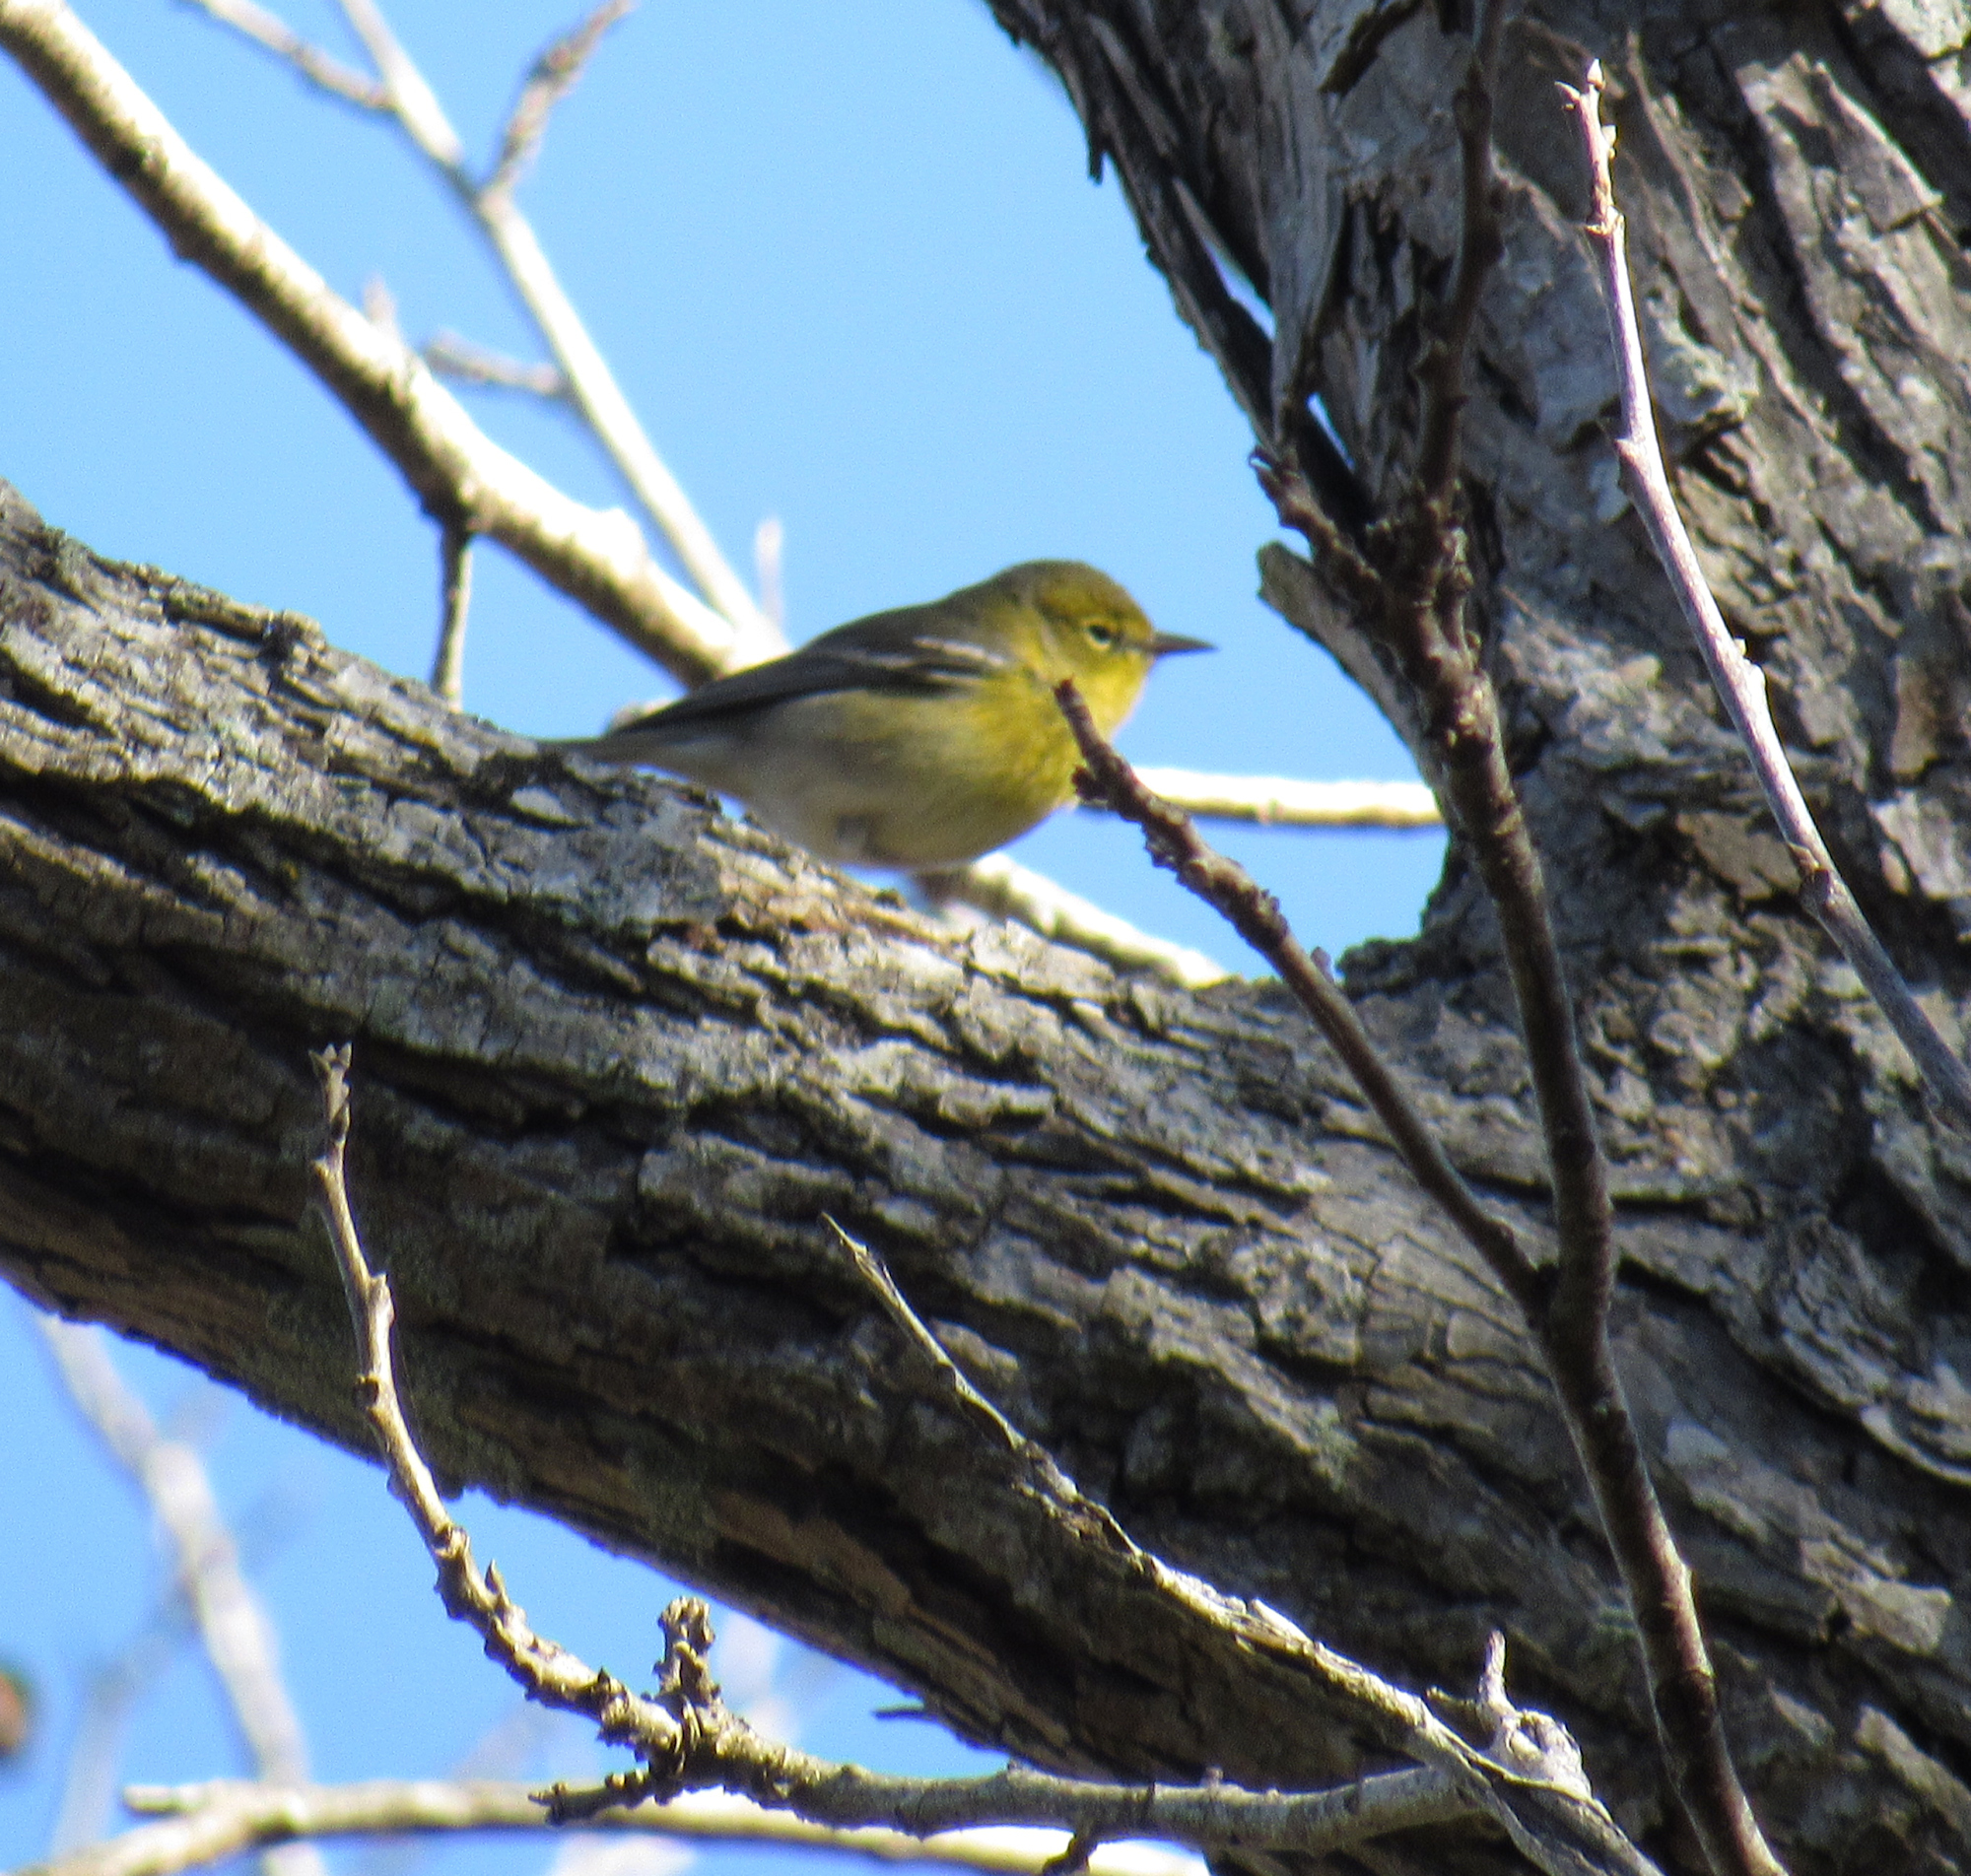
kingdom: Animalia
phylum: Chordata
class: Aves
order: Passeriformes
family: Parulidae
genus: Setophaga
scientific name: Setophaga pinus
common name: Pine warbler
